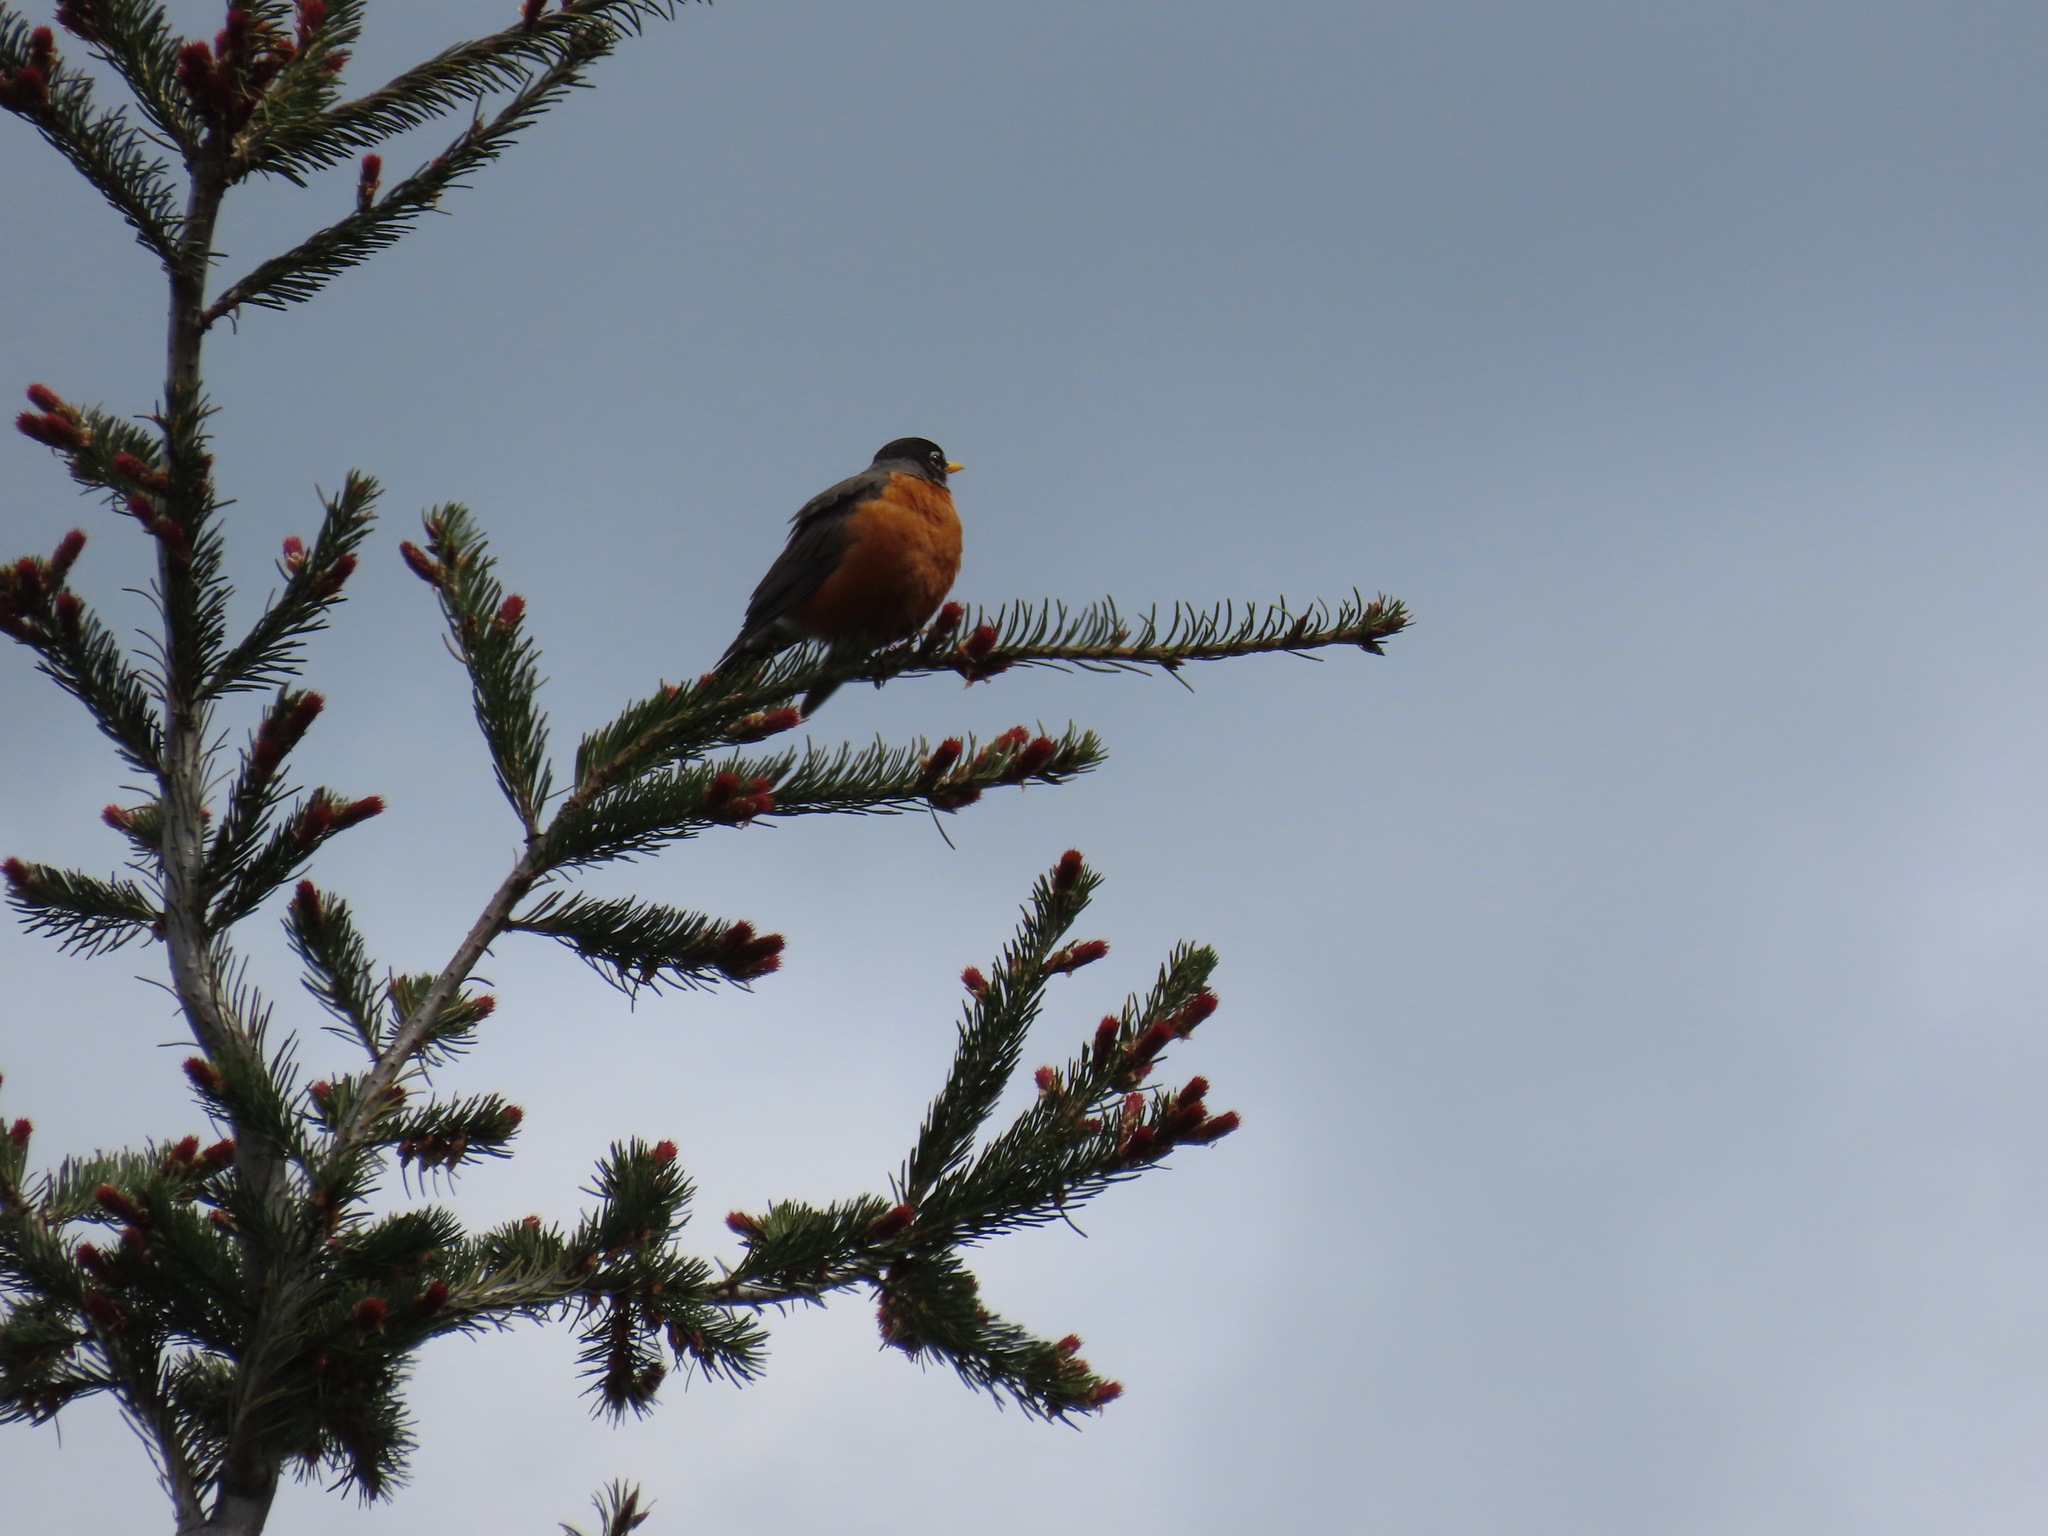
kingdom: Animalia
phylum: Chordata
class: Aves
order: Passeriformes
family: Turdidae
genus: Turdus
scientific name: Turdus migratorius
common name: American robin
